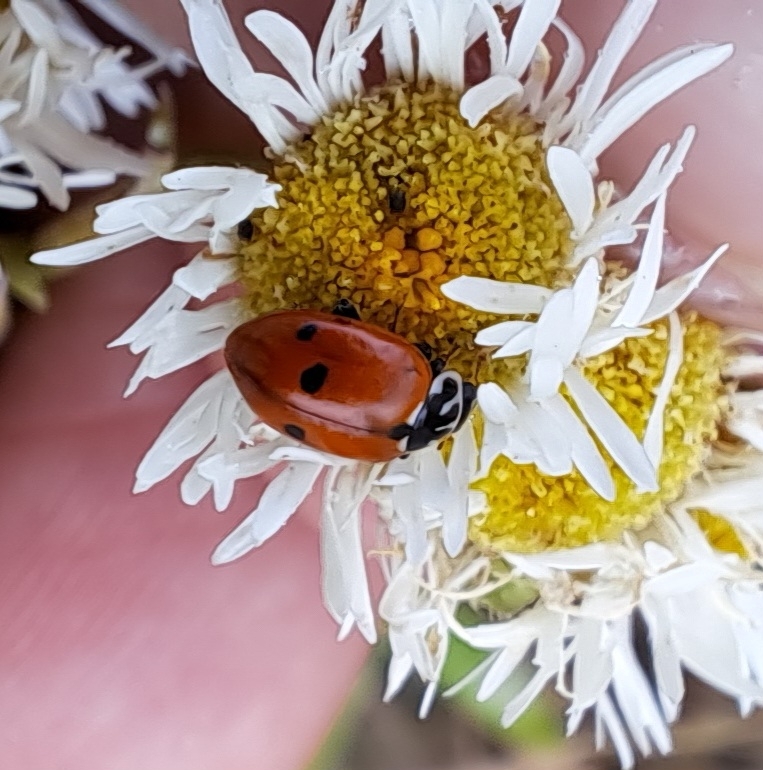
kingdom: Animalia
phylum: Arthropoda
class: Insecta
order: Coleoptera
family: Coccinellidae
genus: Hippodamia
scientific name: Hippodamia variegata
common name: Ladybird beetle
